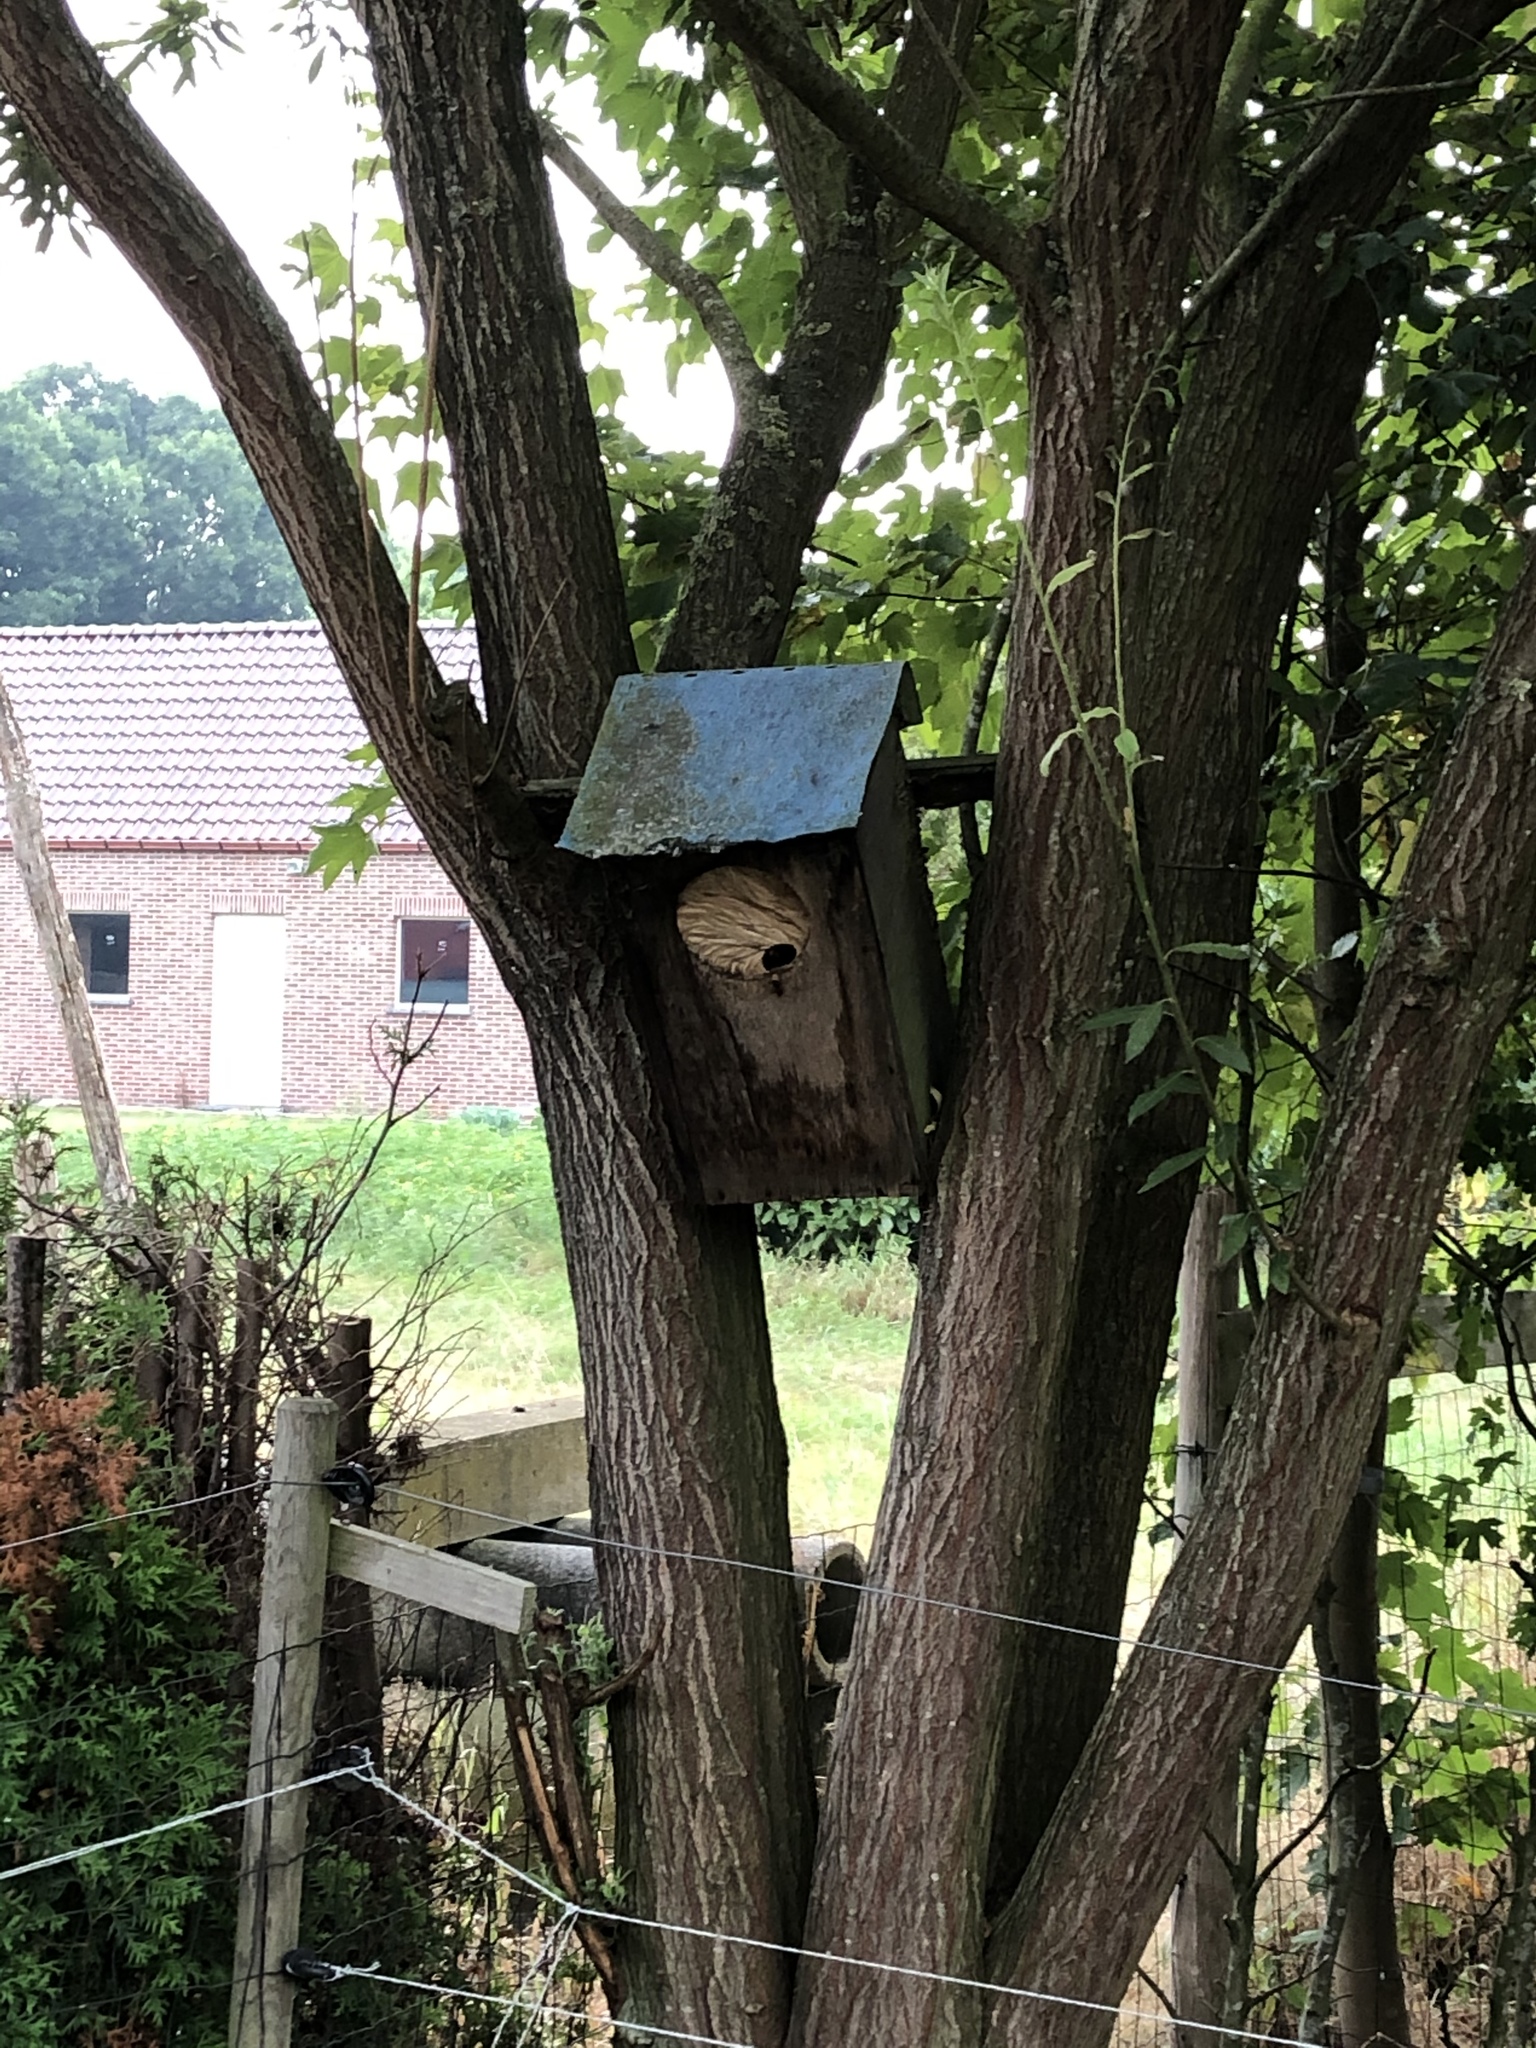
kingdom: Animalia
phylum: Arthropoda
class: Insecta
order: Hymenoptera
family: Vespidae
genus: Vespa
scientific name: Vespa crabro
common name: Hornet
